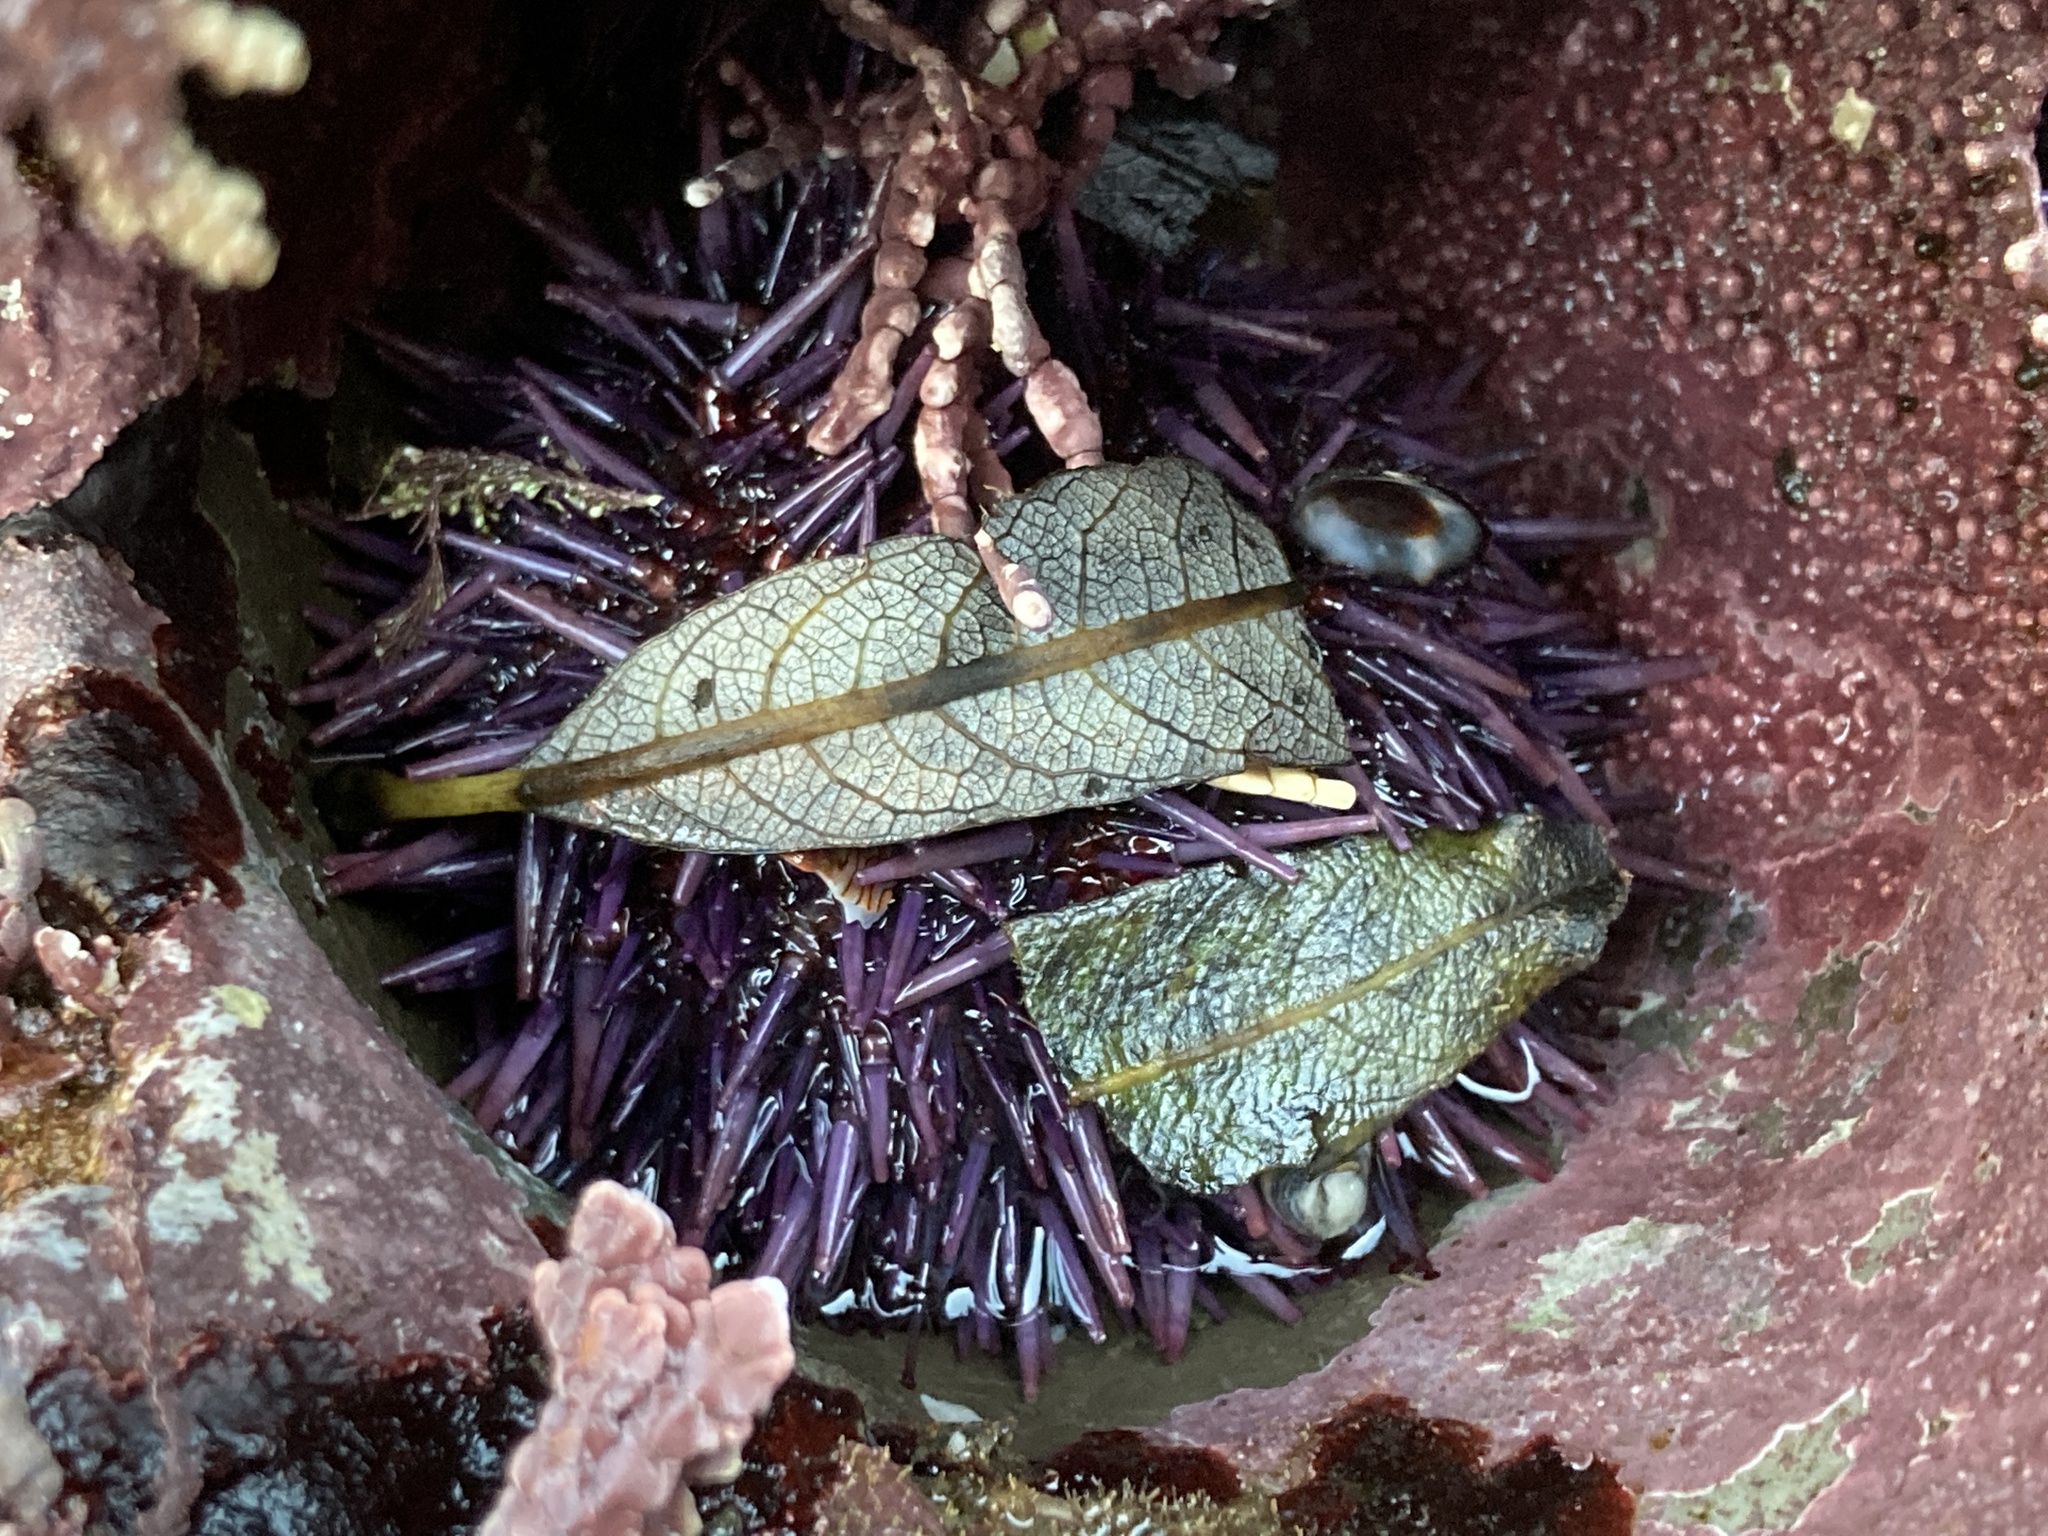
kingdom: Animalia
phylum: Echinodermata
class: Echinoidea
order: Camarodonta
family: Strongylocentrotidae
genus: Strongylocentrotus
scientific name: Strongylocentrotus purpuratus
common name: Purple sea urchin
